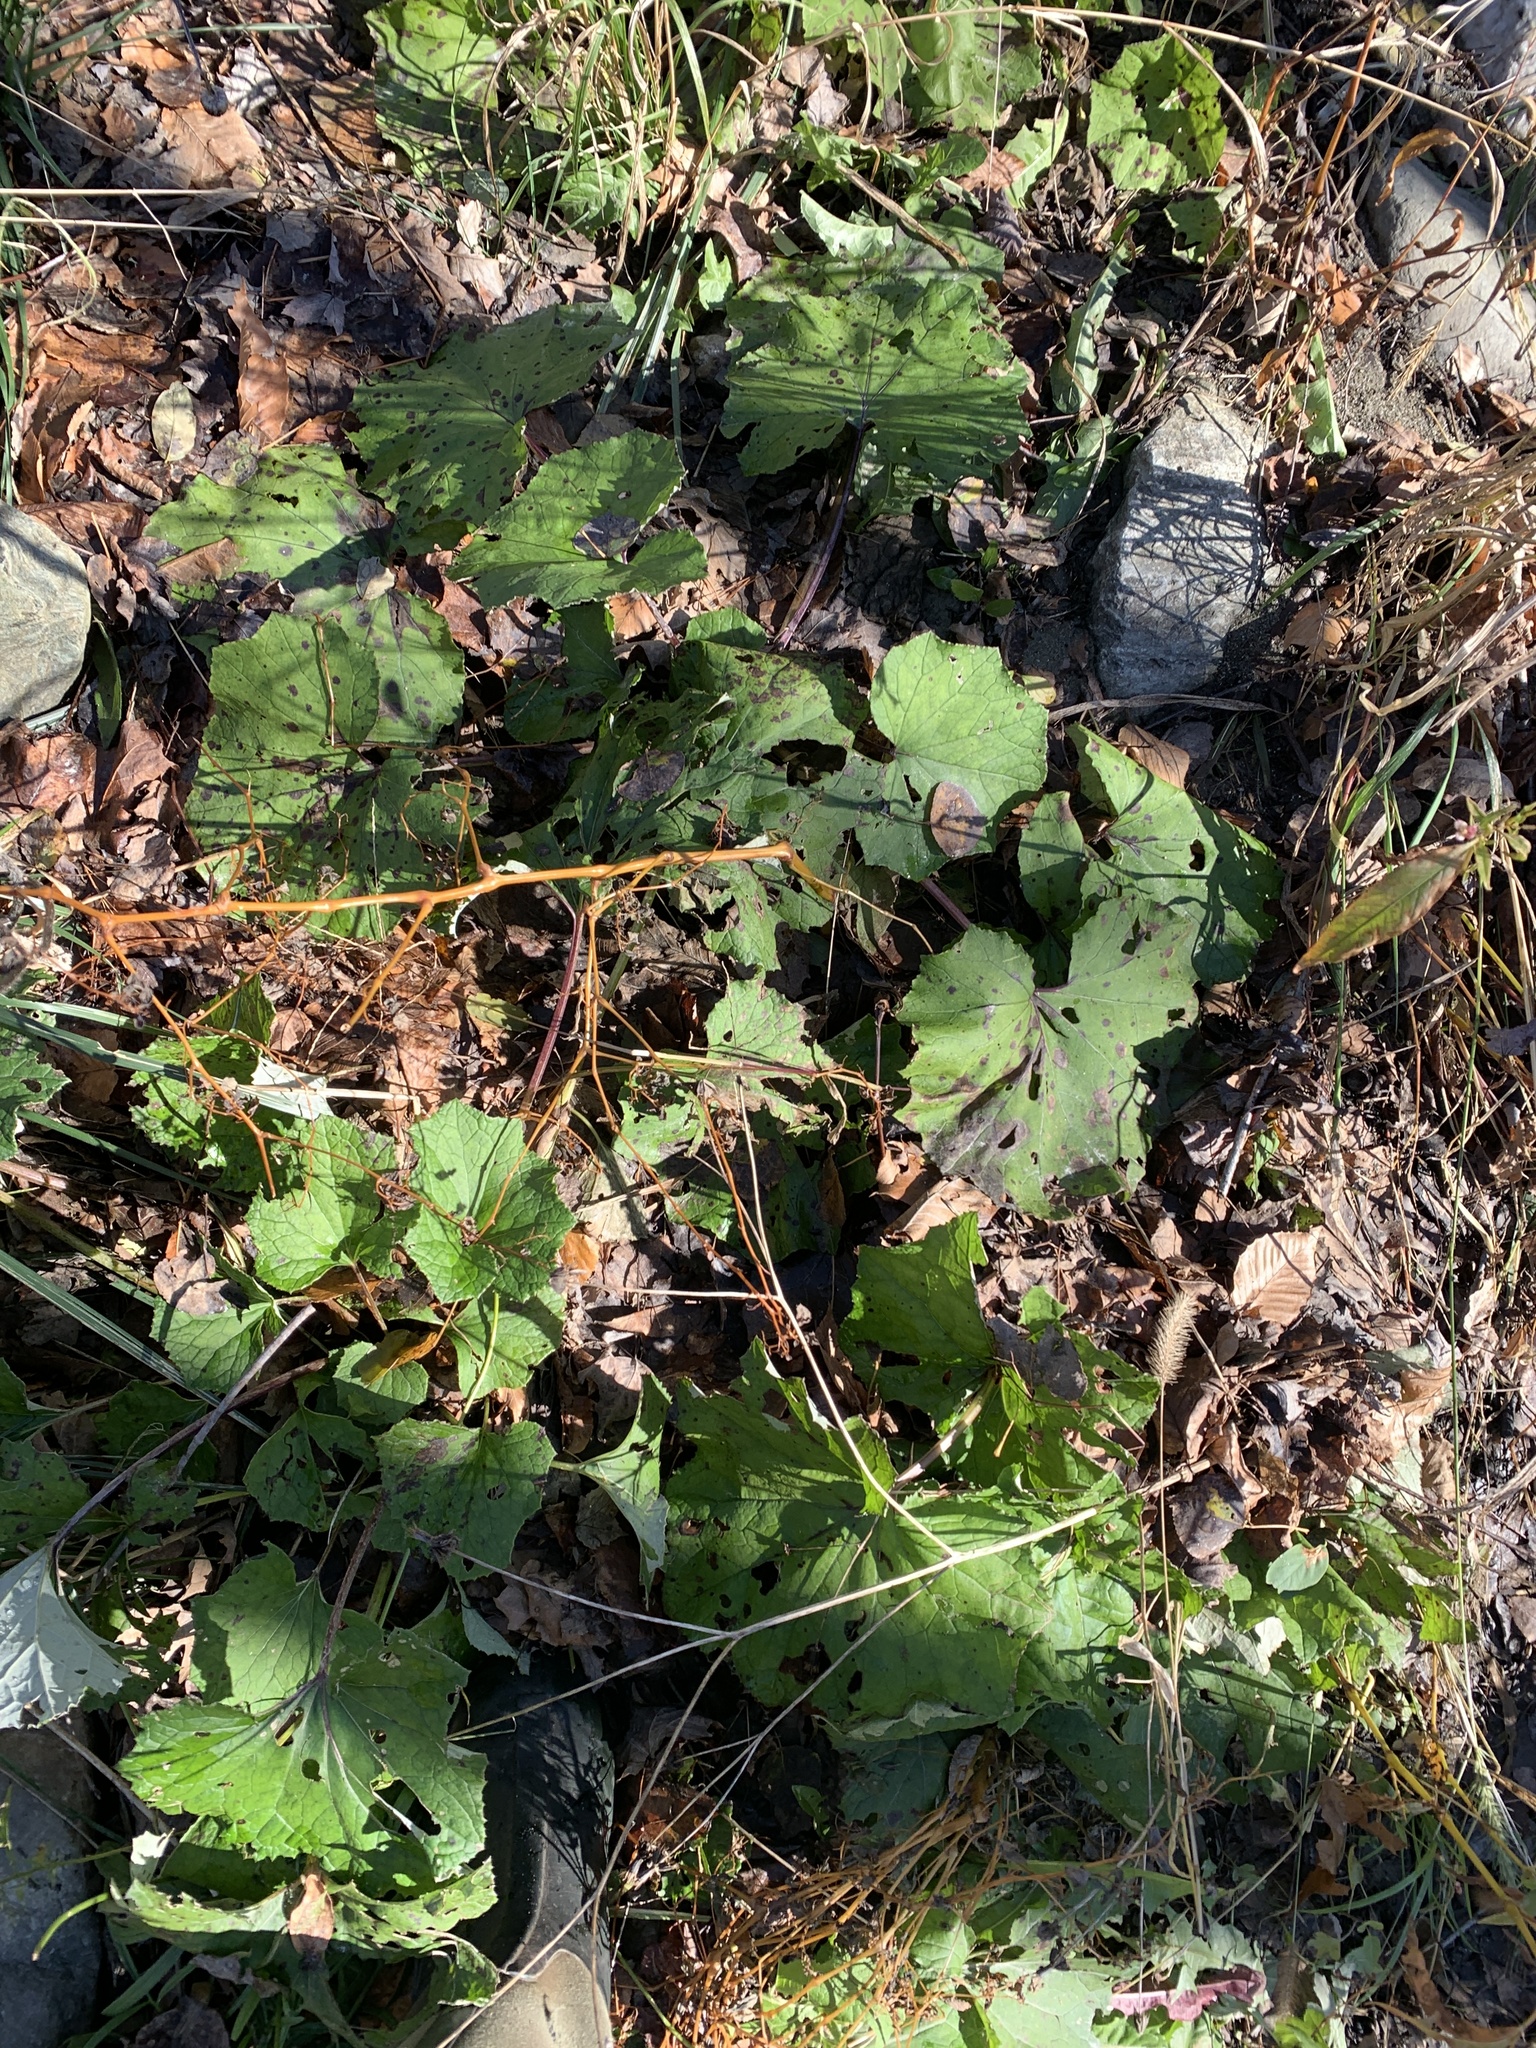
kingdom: Plantae
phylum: Tracheophyta
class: Magnoliopsida
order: Asterales
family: Asteraceae
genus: Tussilago
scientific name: Tussilago farfara
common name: Coltsfoot
